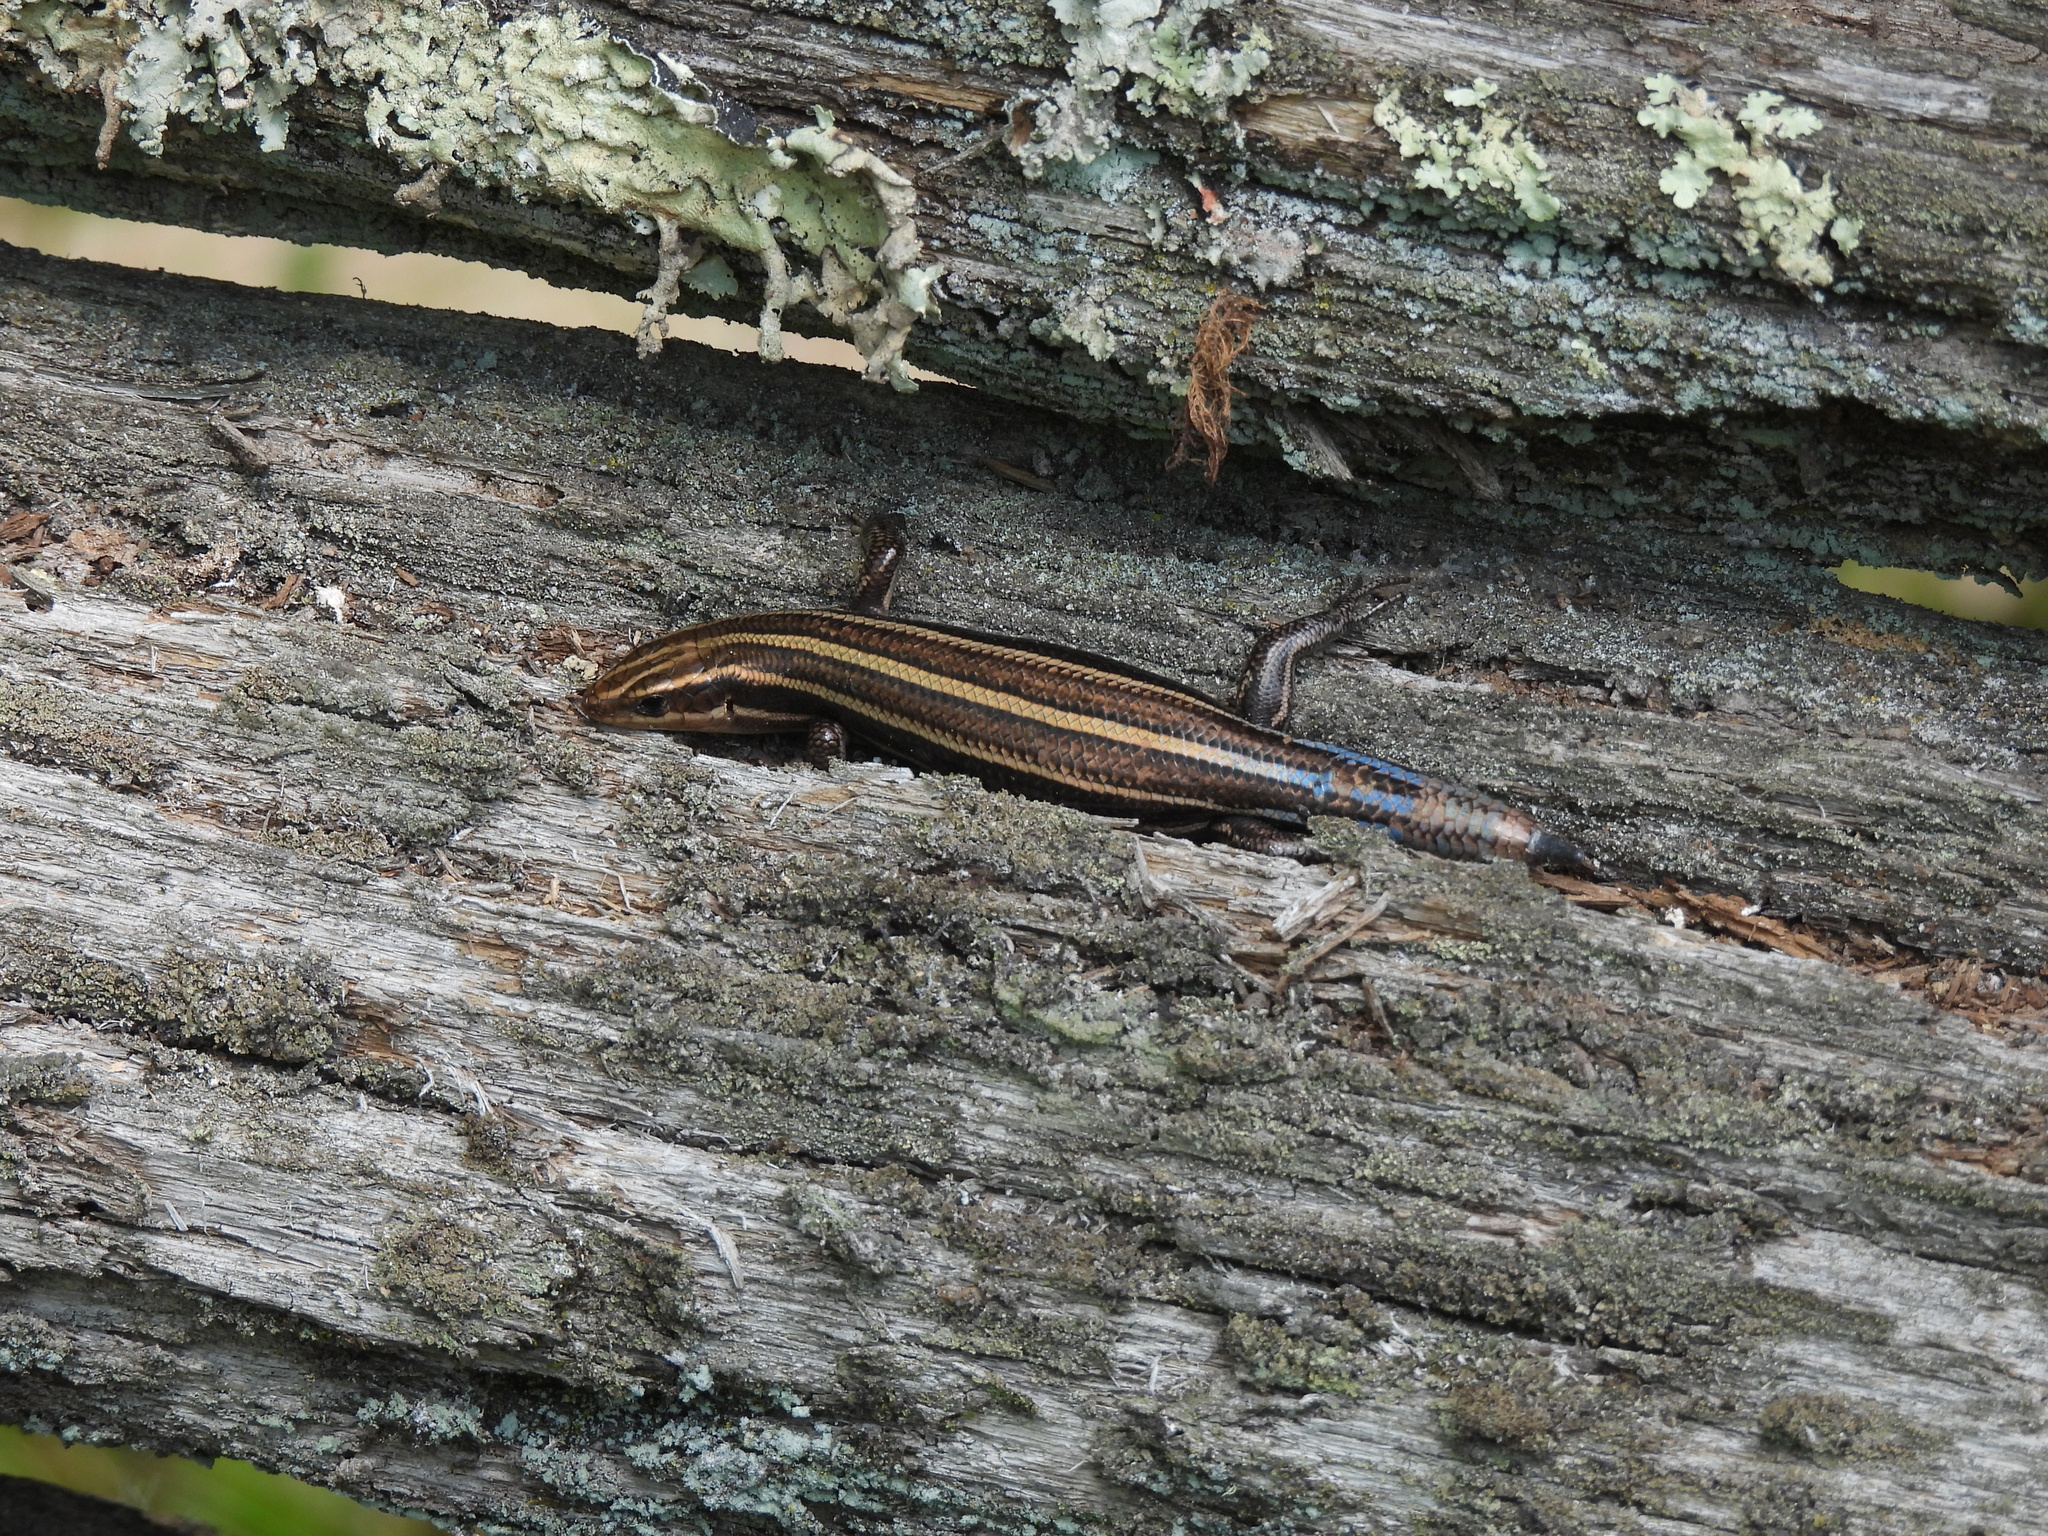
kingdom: Animalia
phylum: Chordata
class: Squamata
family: Scincidae
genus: Plestiodon
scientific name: Plestiodon fasciatus
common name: Five-lined skink
